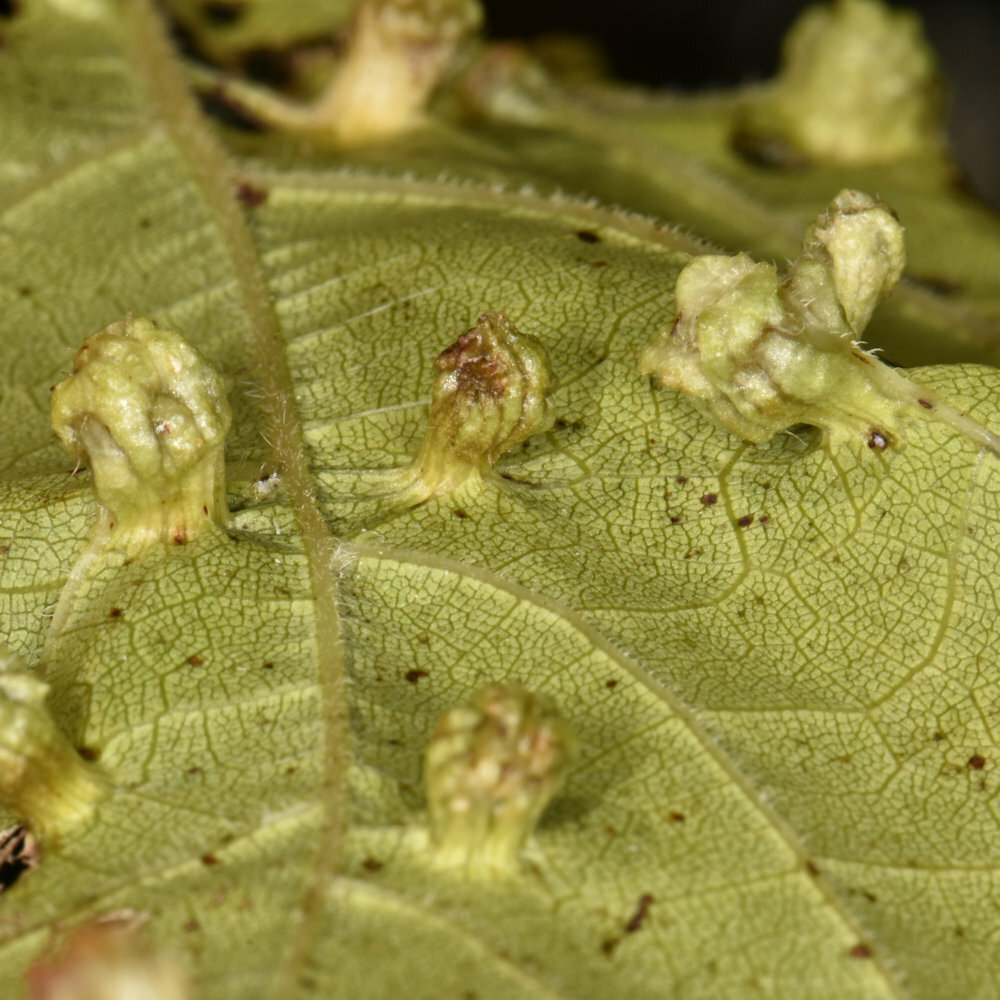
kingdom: Animalia
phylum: Arthropoda
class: Insecta
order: Hemiptera
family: Phylloxeridae
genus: Daktulosphaira
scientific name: Daktulosphaira vitifoliae
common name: Grape phylloxera
